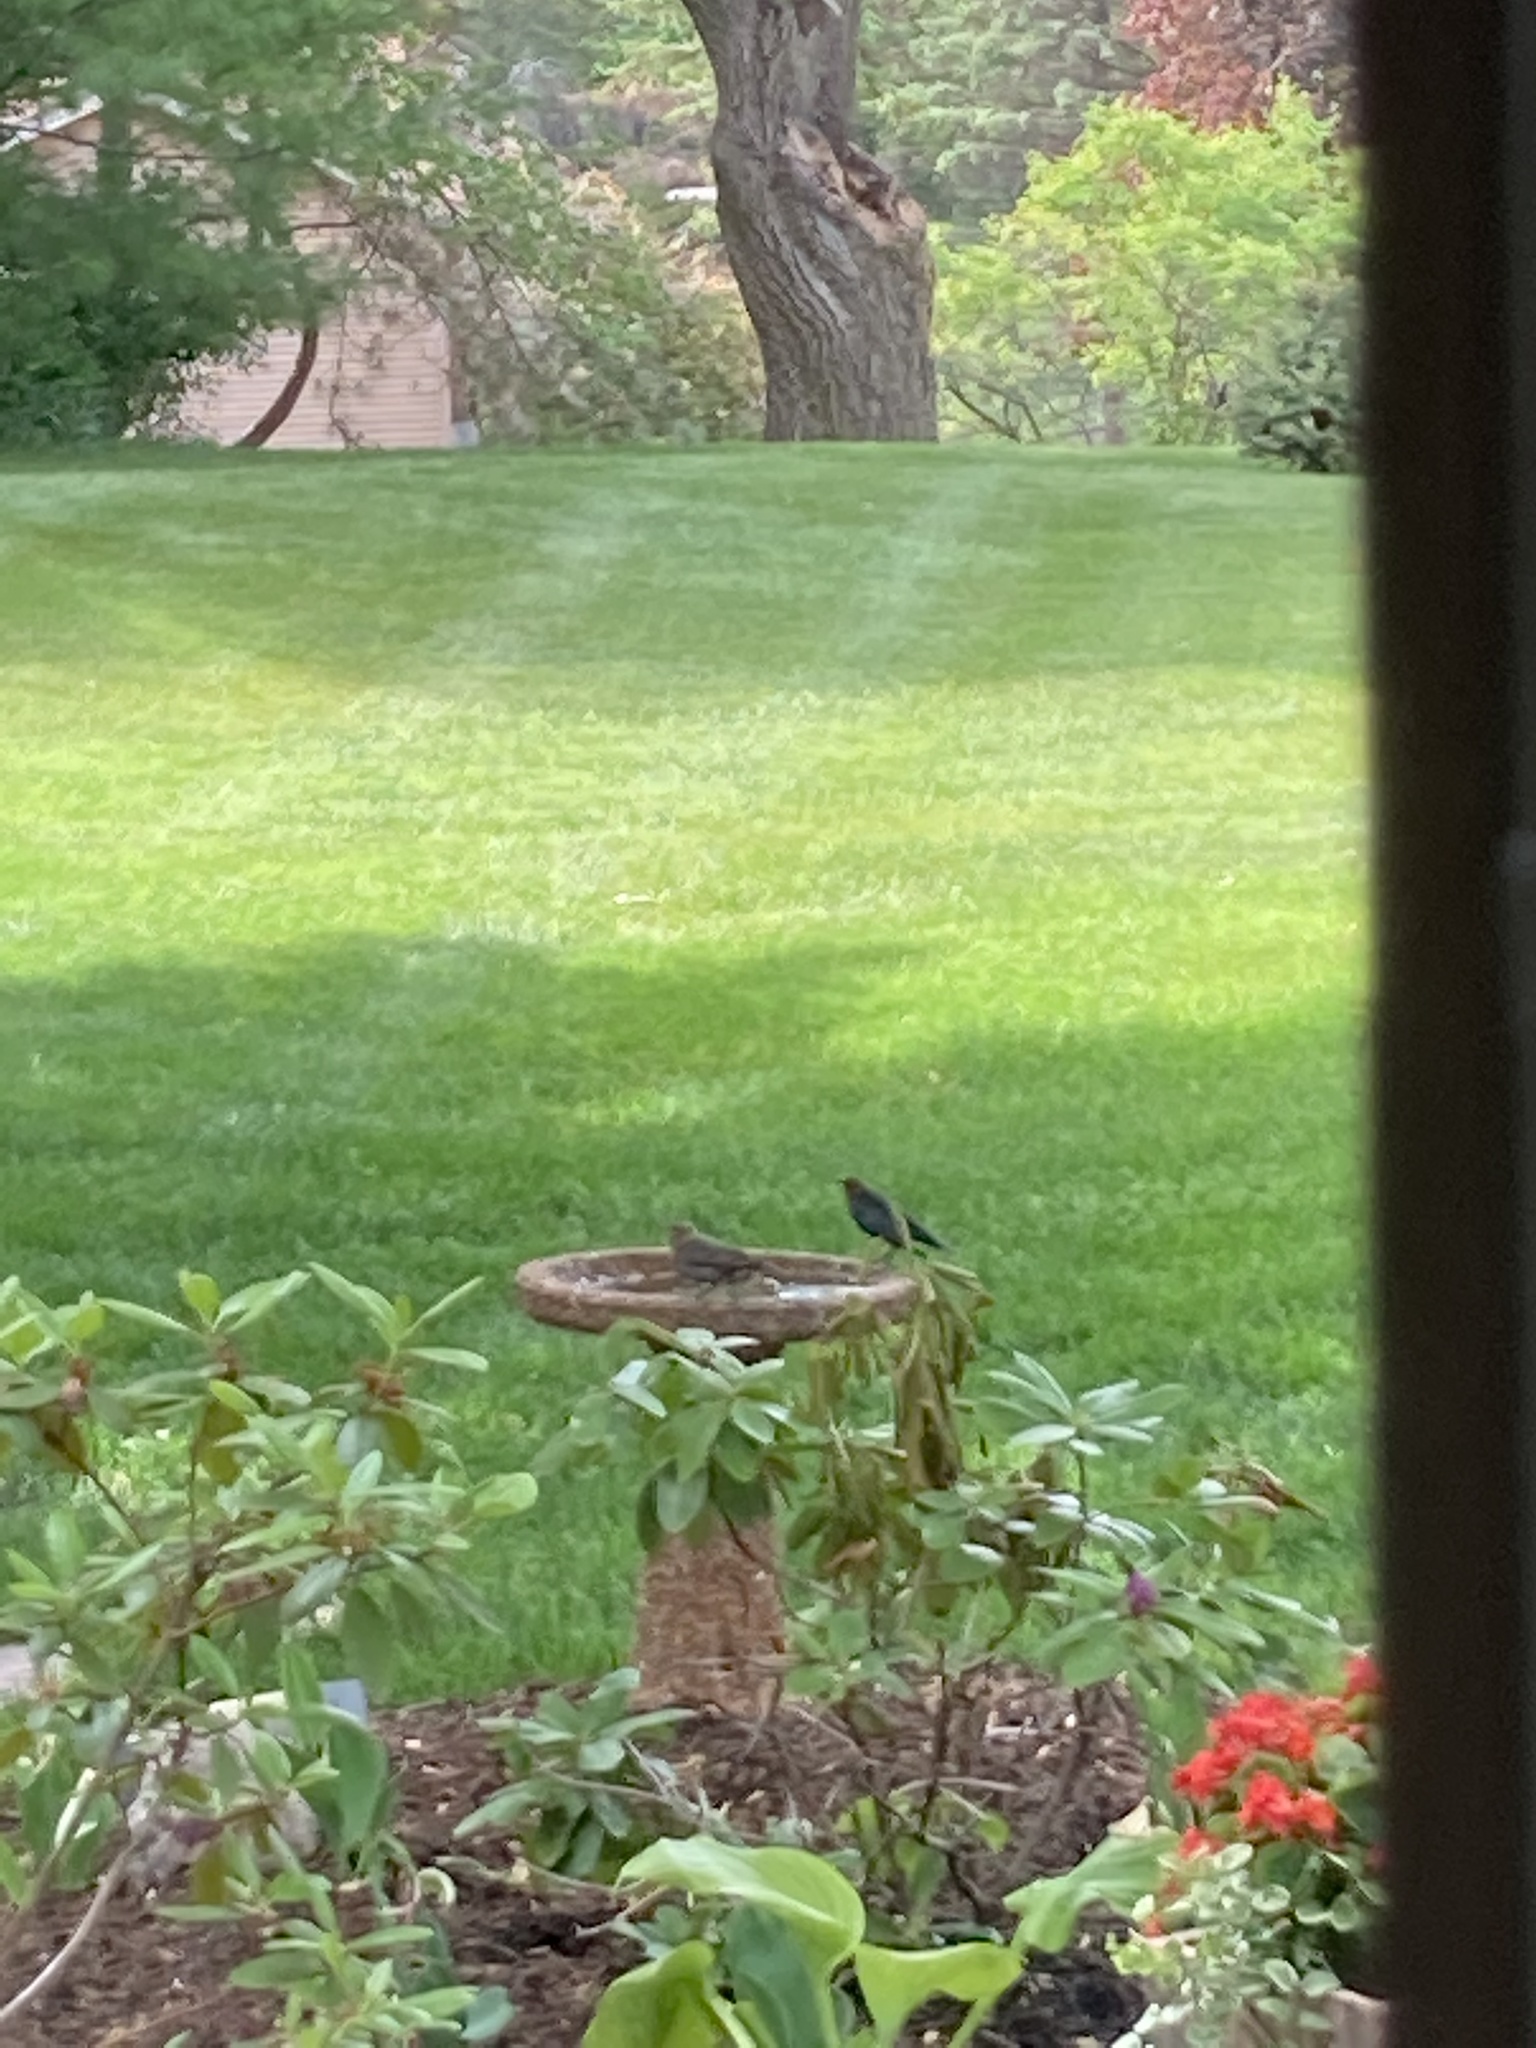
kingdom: Animalia
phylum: Chordata
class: Aves
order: Passeriformes
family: Icteridae
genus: Molothrus
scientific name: Molothrus ater
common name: Brown-headed cowbird
